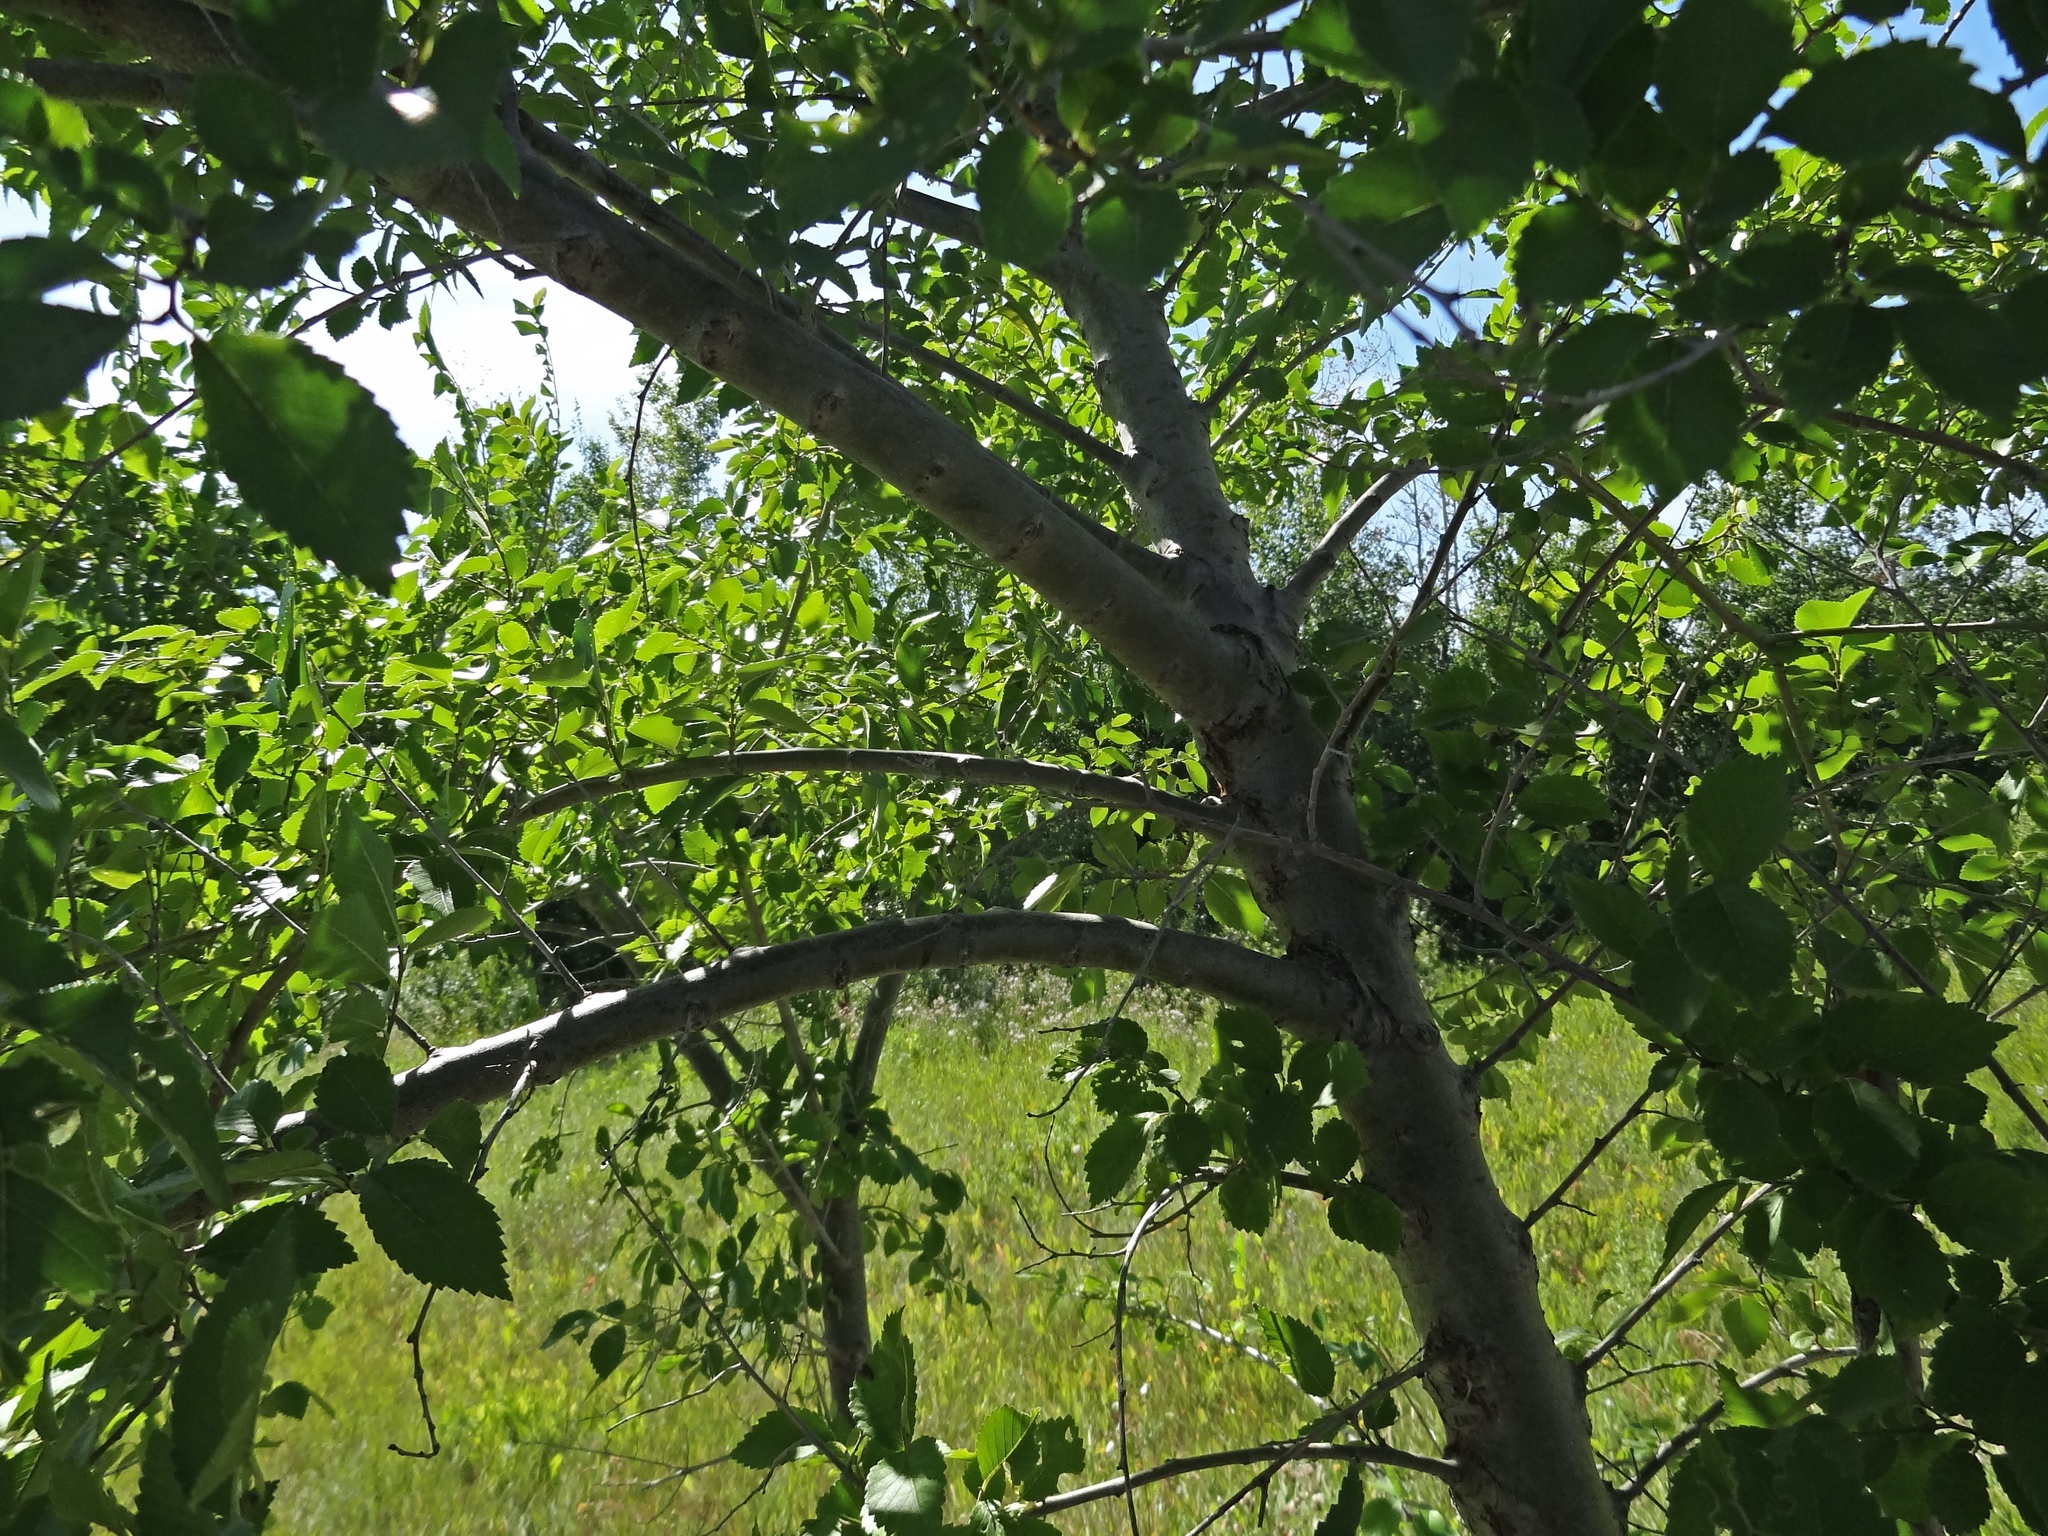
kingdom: Plantae
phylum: Tracheophyta
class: Magnoliopsida
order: Rosales
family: Ulmaceae
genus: Ulmus
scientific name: Ulmus pumila
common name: Siberian elm
